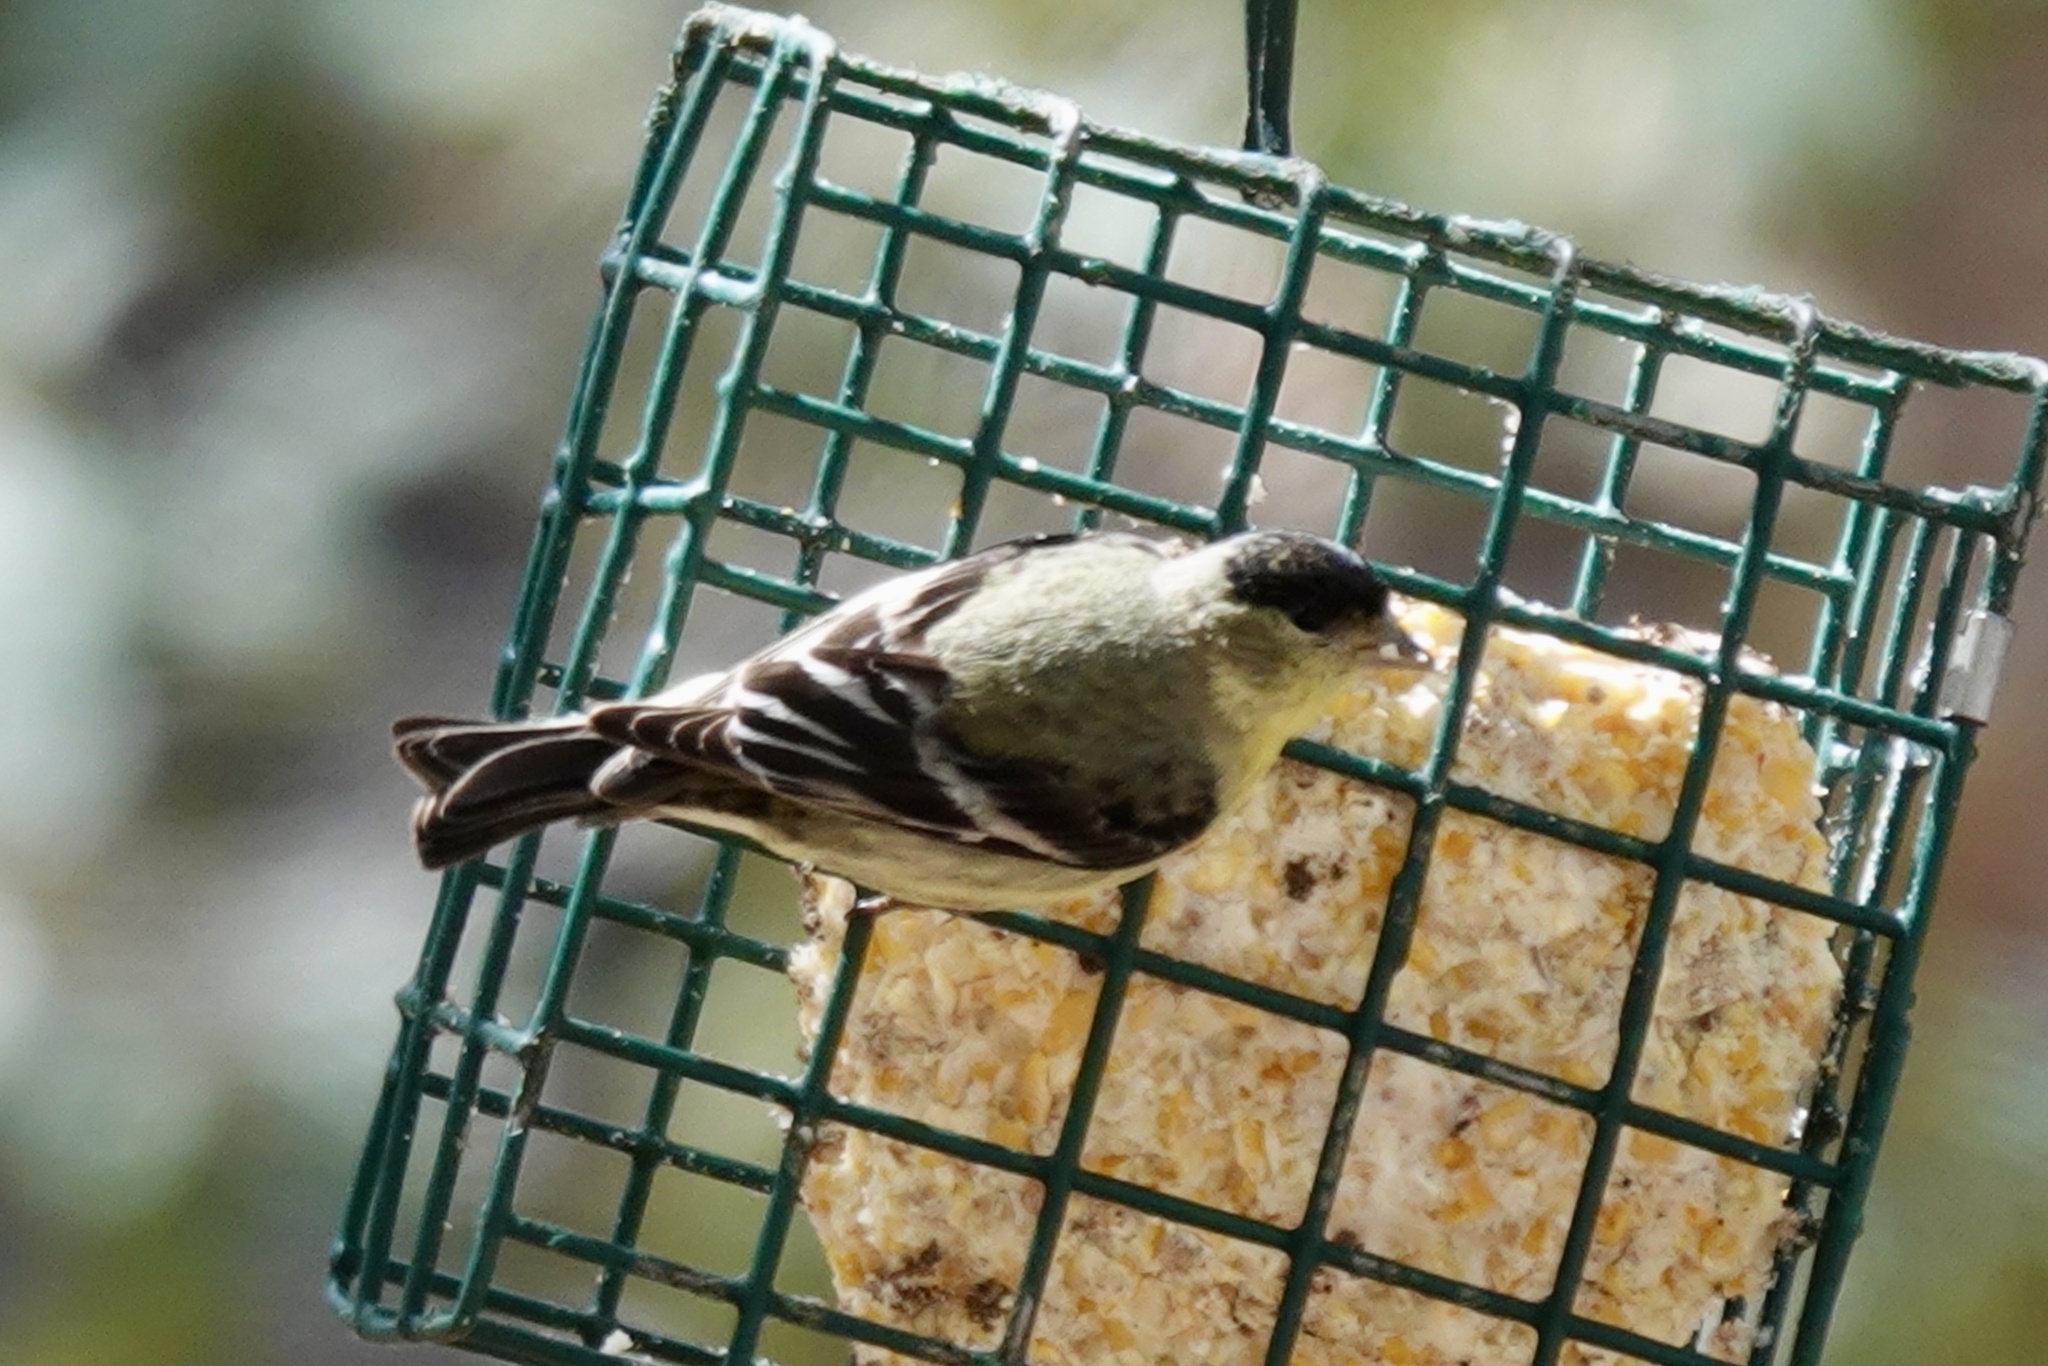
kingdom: Animalia
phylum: Chordata
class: Aves
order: Passeriformes
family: Fringillidae
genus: Spinus
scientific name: Spinus psaltria
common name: Lesser goldfinch
